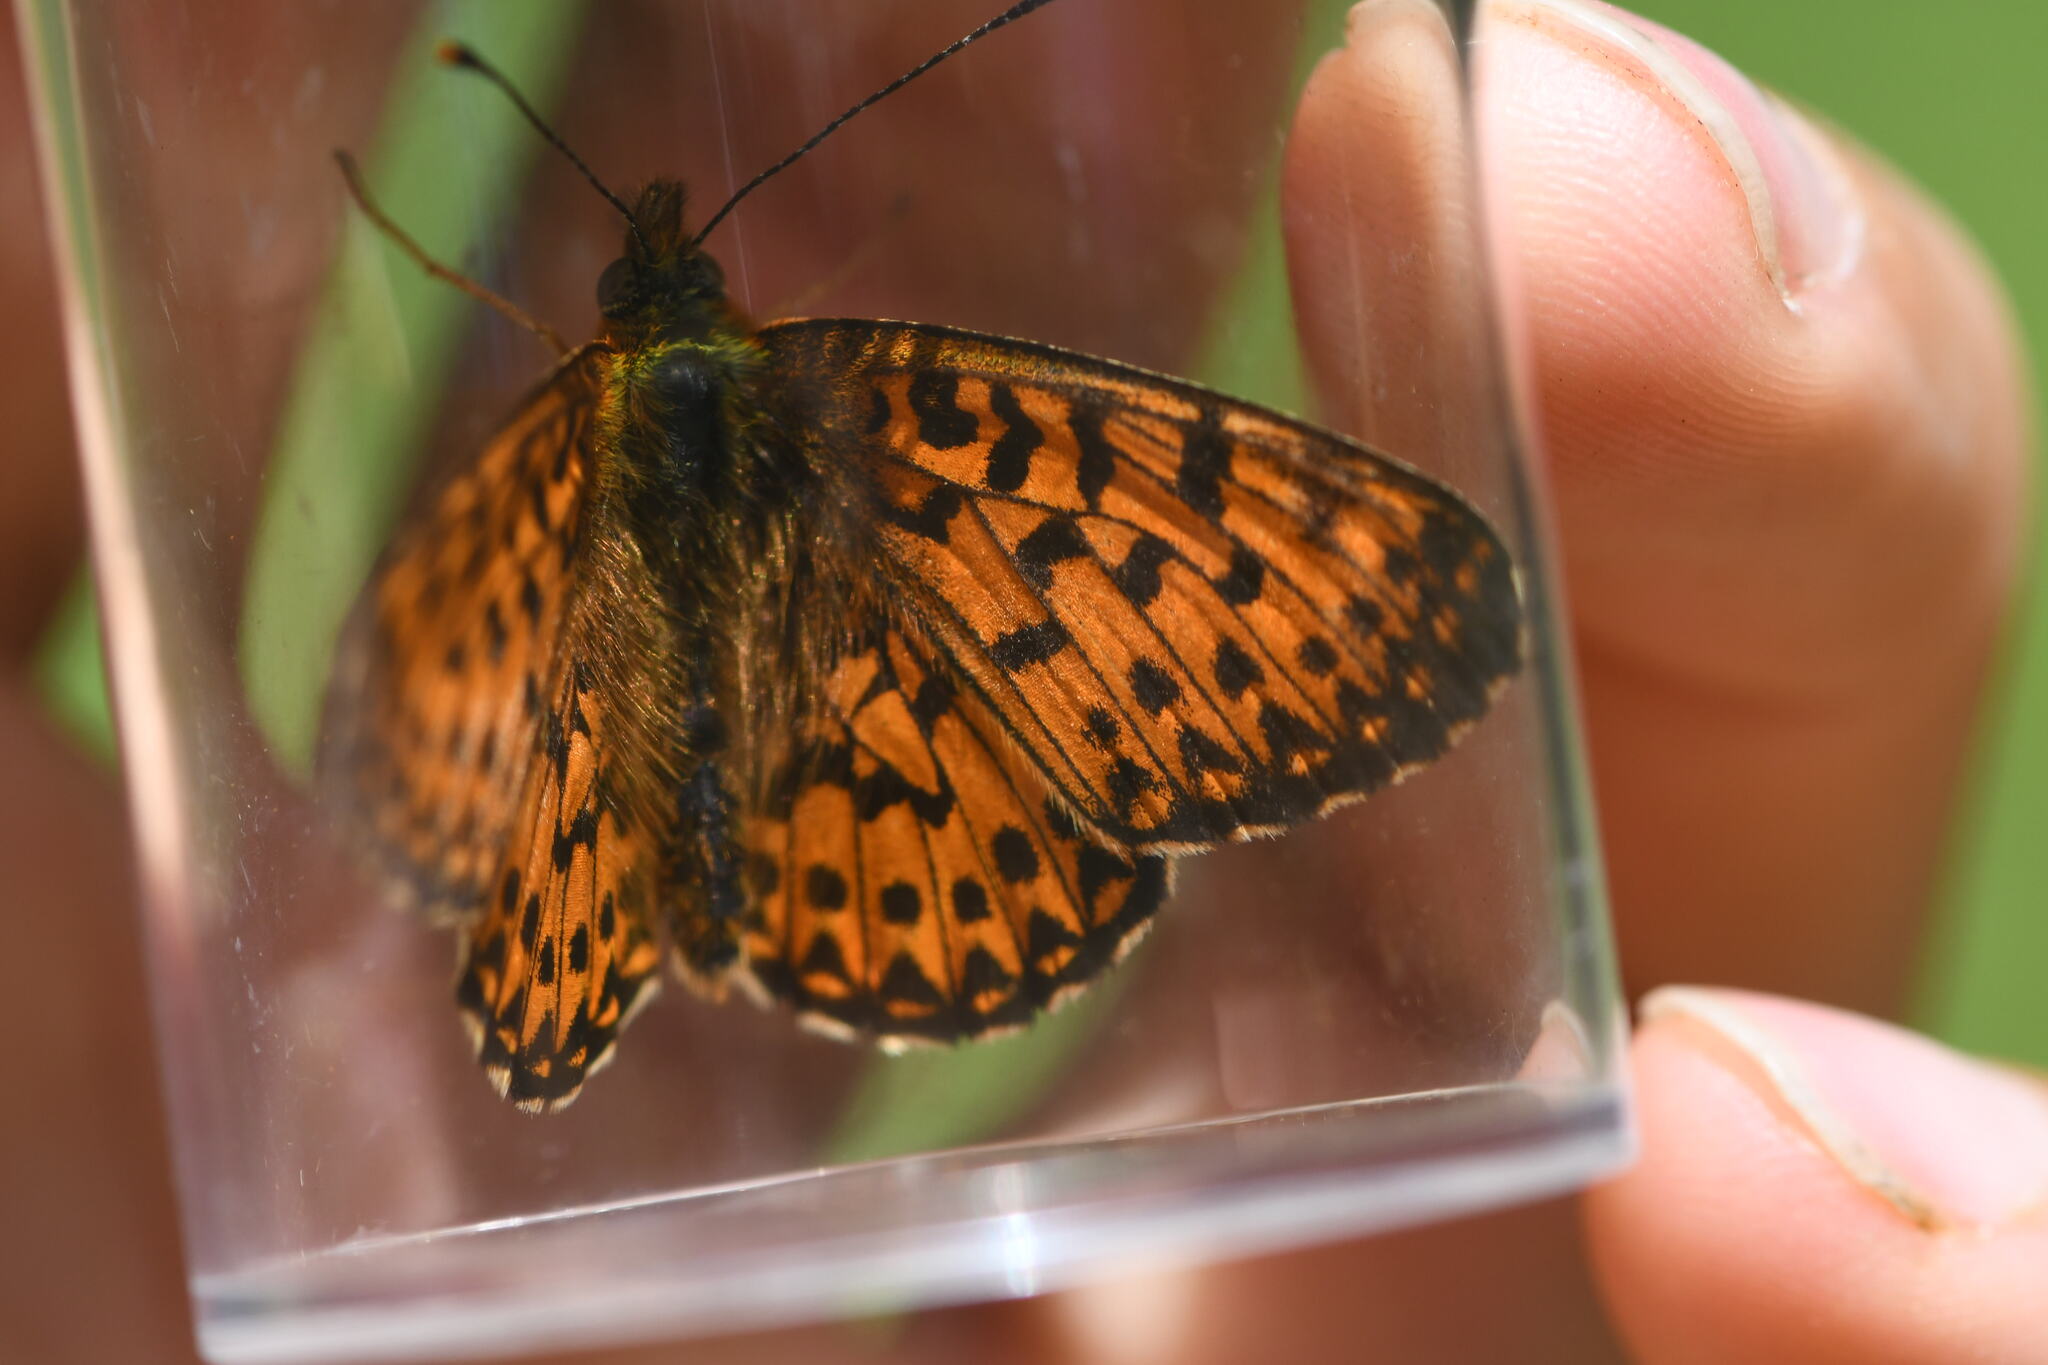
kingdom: Animalia
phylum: Arthropoda
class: Insecta
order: Lepidoptera
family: Nymphalidae
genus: Boloria
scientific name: Boloria titania
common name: Titania's fritillary
